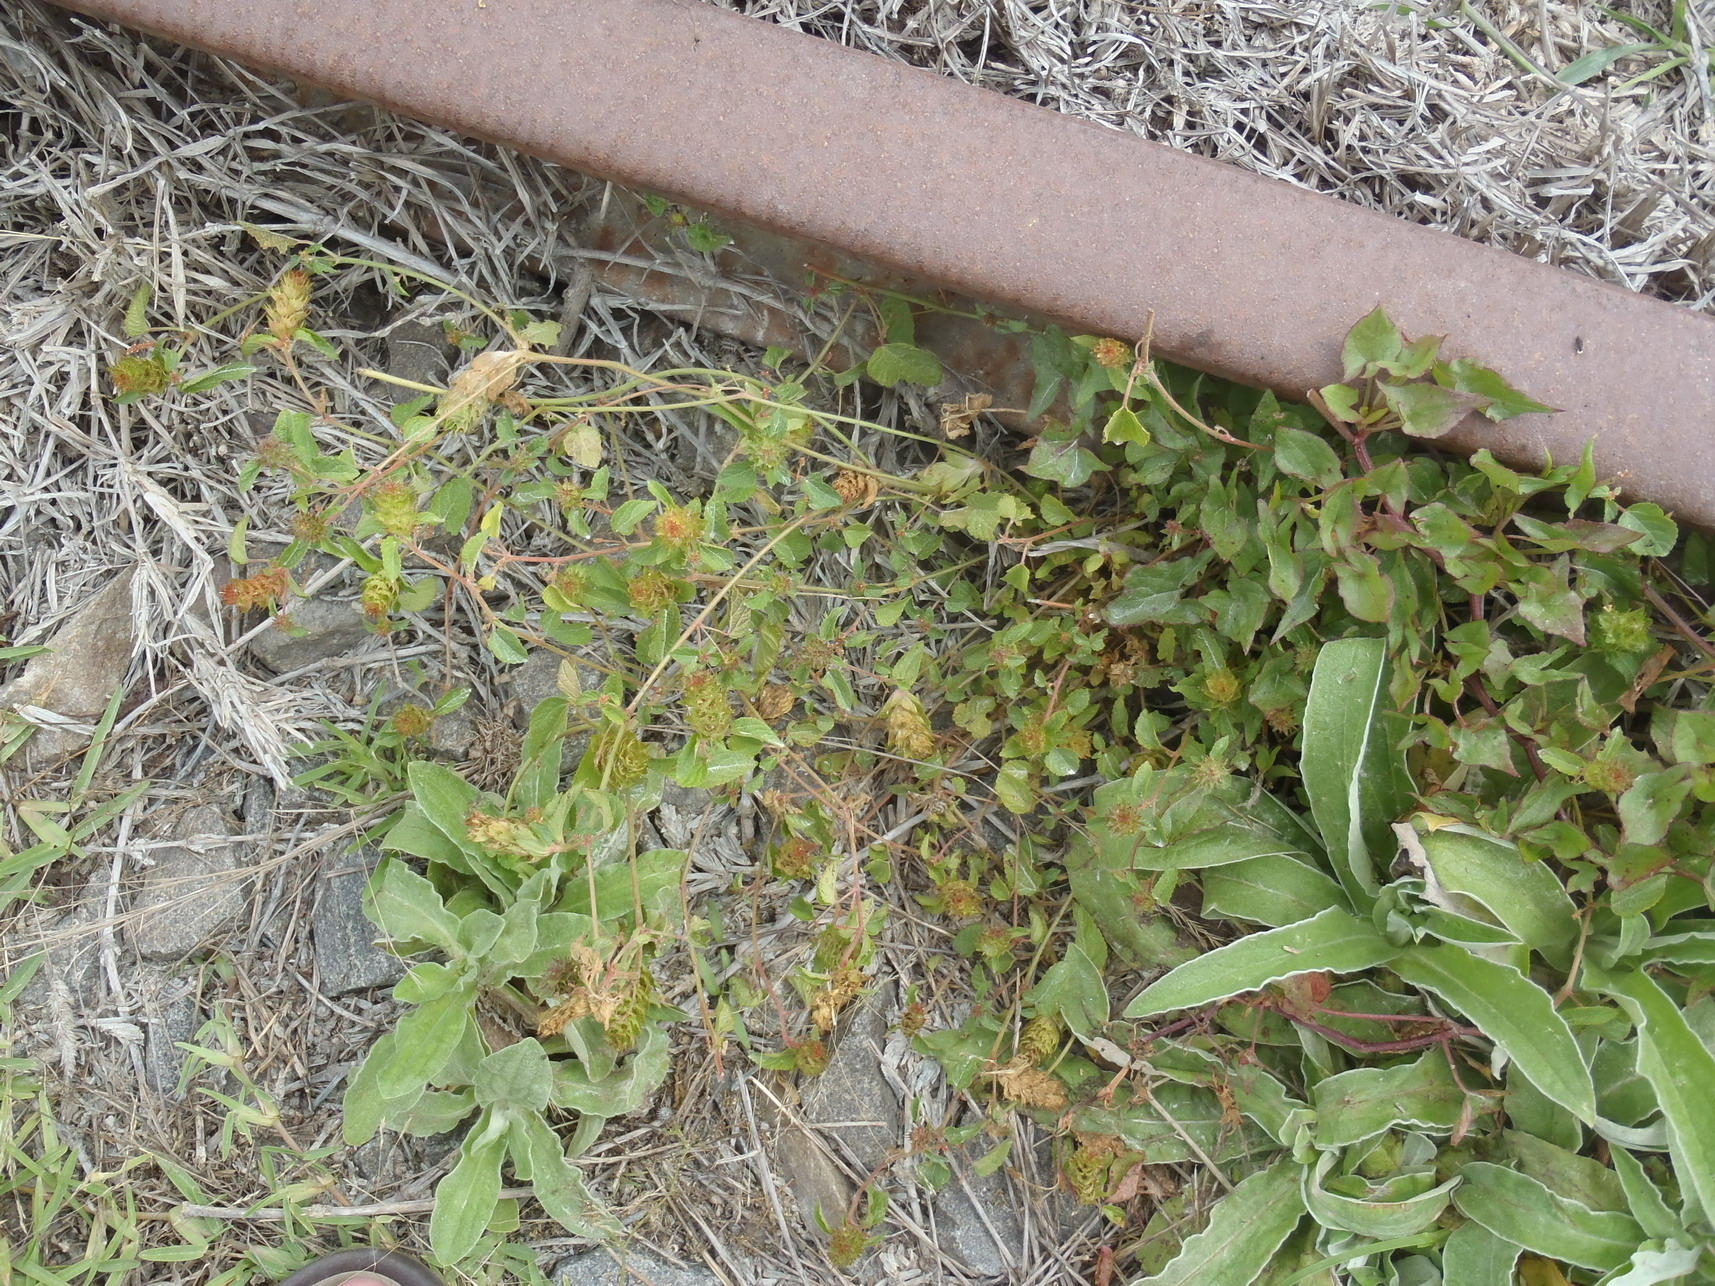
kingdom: Plantae
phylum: Tracheophyta
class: Magnoliopsida
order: Malpighiales
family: Euphorbiaceae
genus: Acalypha
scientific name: Acalypha ecklonii
